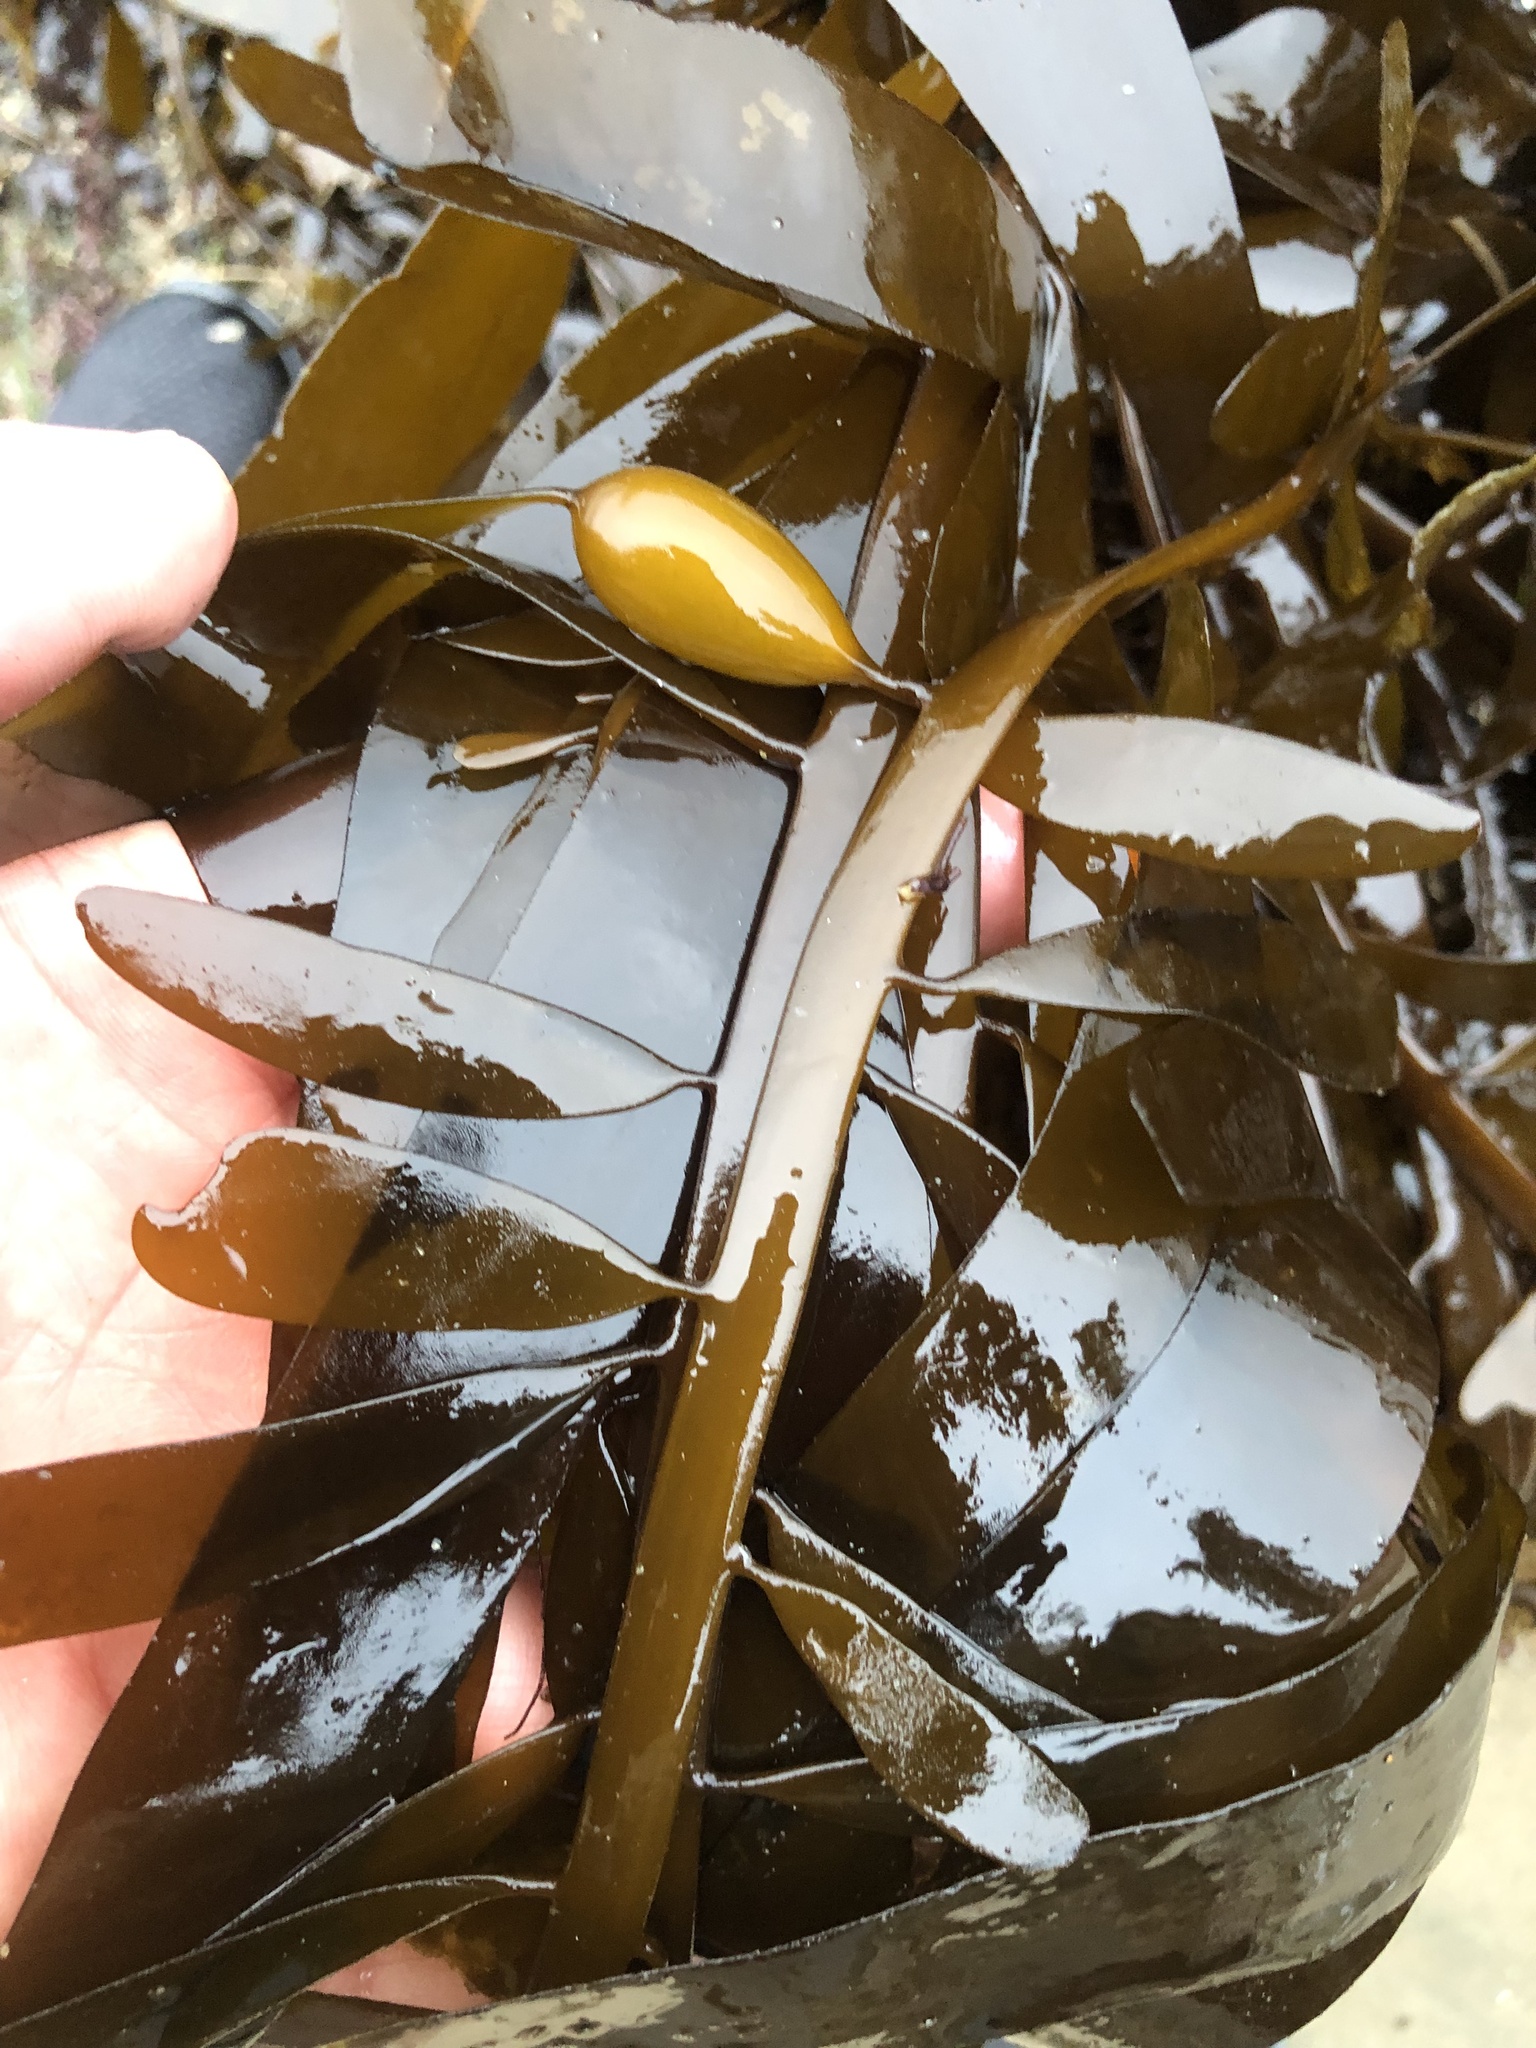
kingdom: Chromista
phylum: Ochrophyta
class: Phaeophyceae
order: Laminariales
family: Lessoniaceae
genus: Egregia
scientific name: Egregia menziesii
